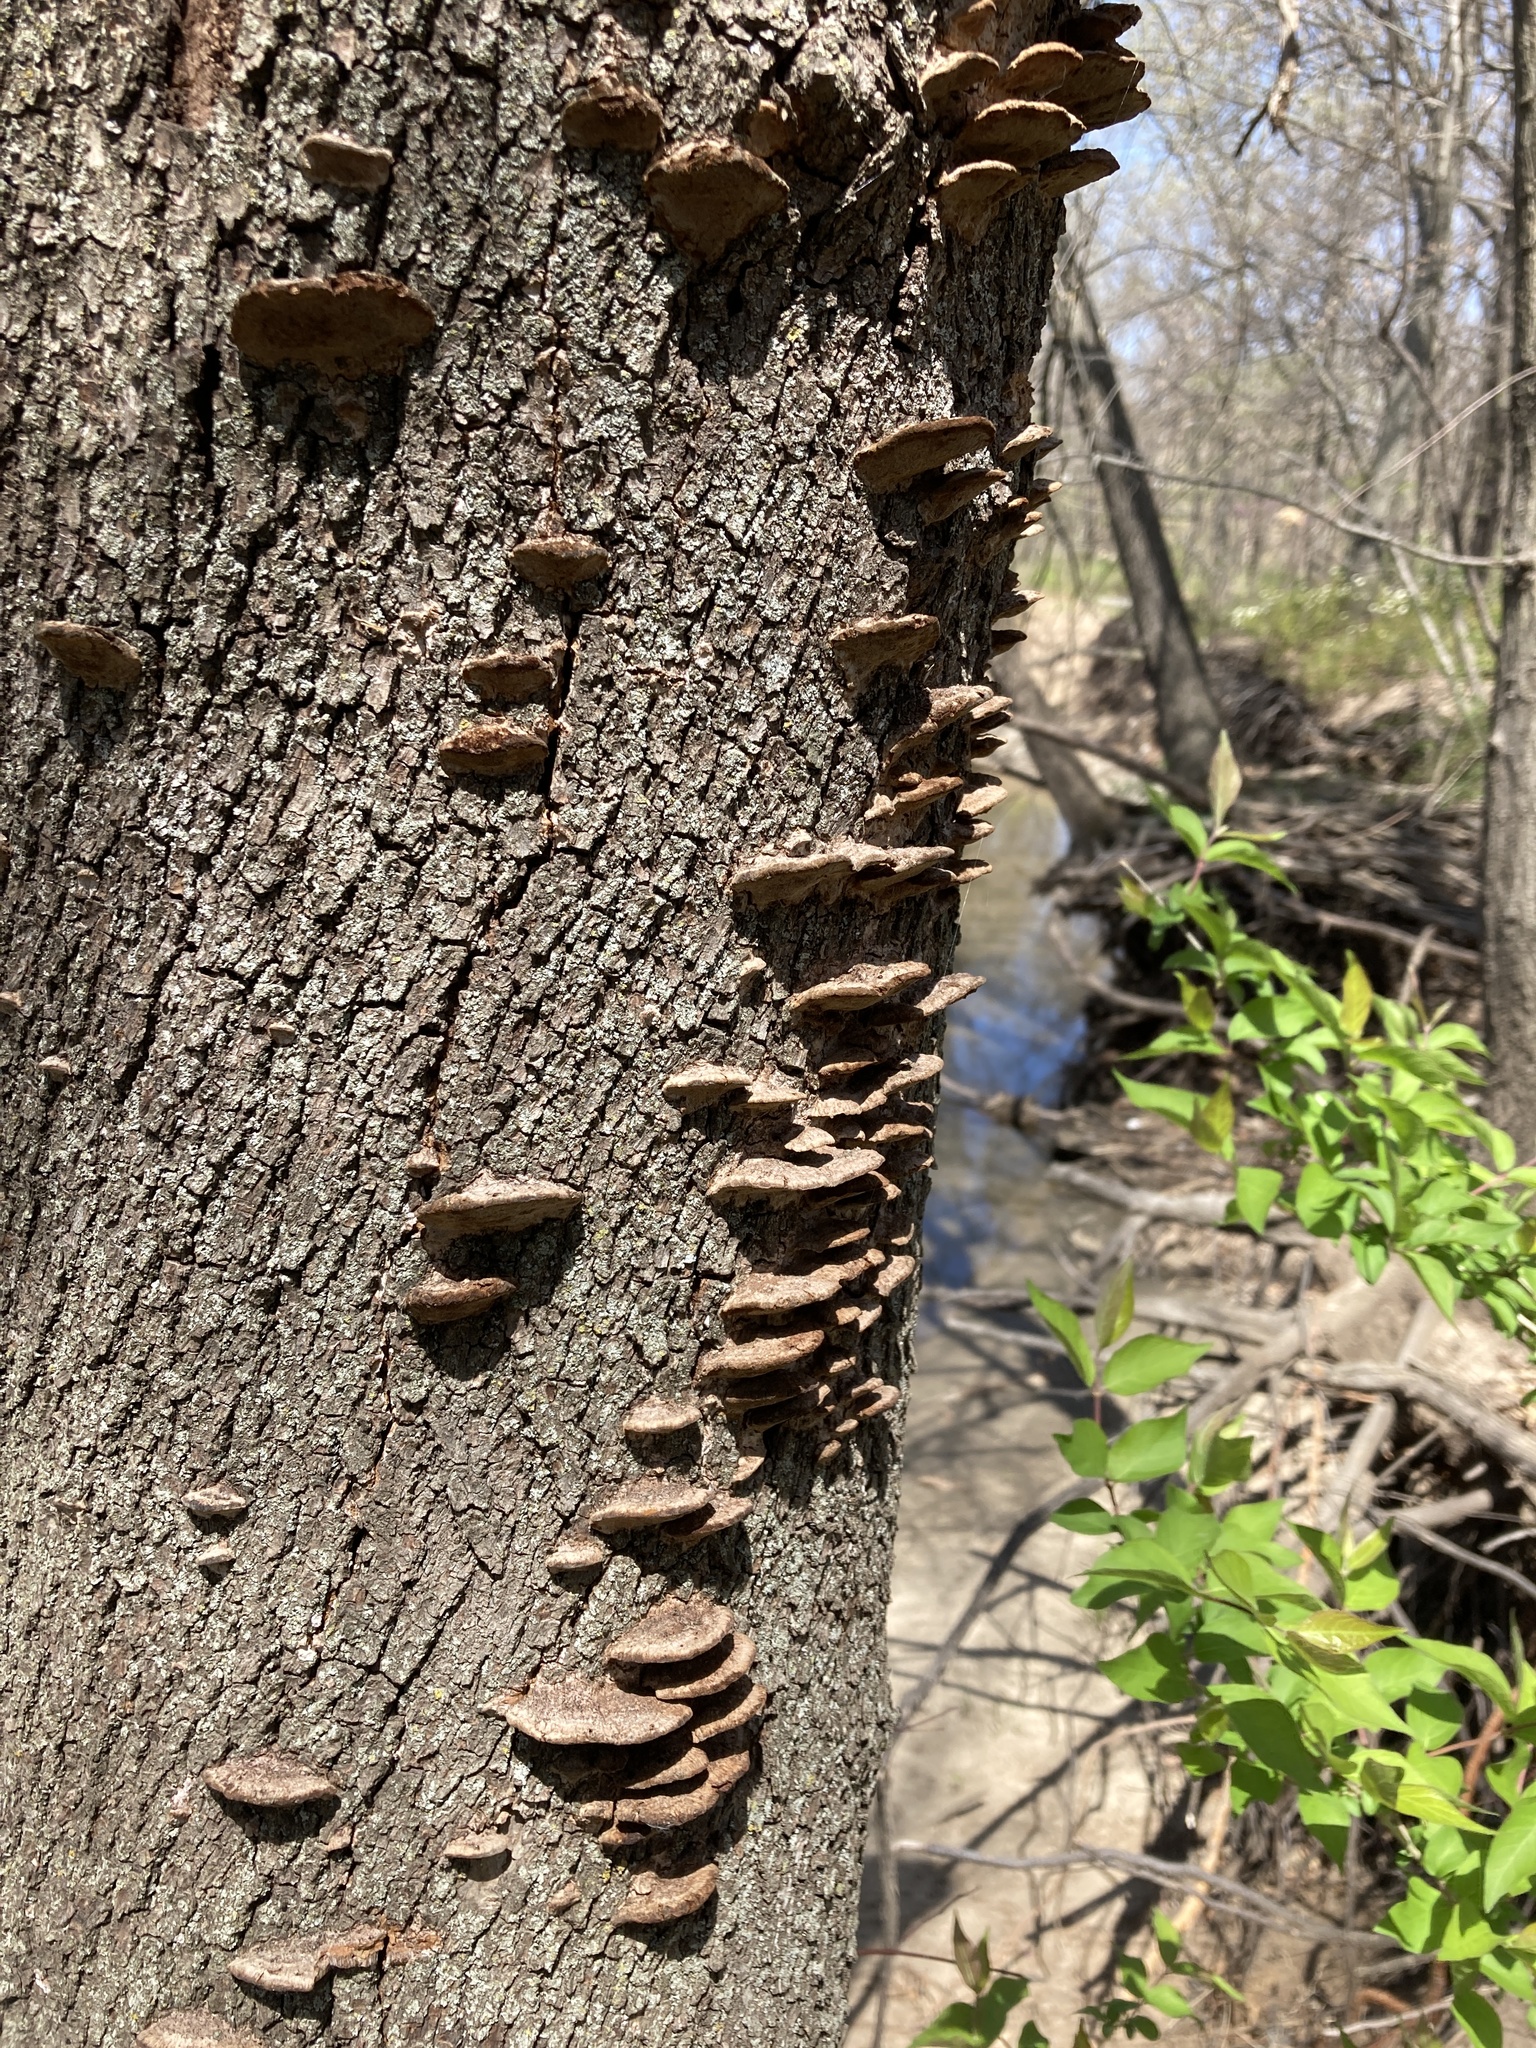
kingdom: Fungi
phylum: Basidiomycota
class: Agaricomycetes
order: Hymenochaetales
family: Hymenochaetaceae
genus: Phellinus
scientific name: Phellinus gilvus
